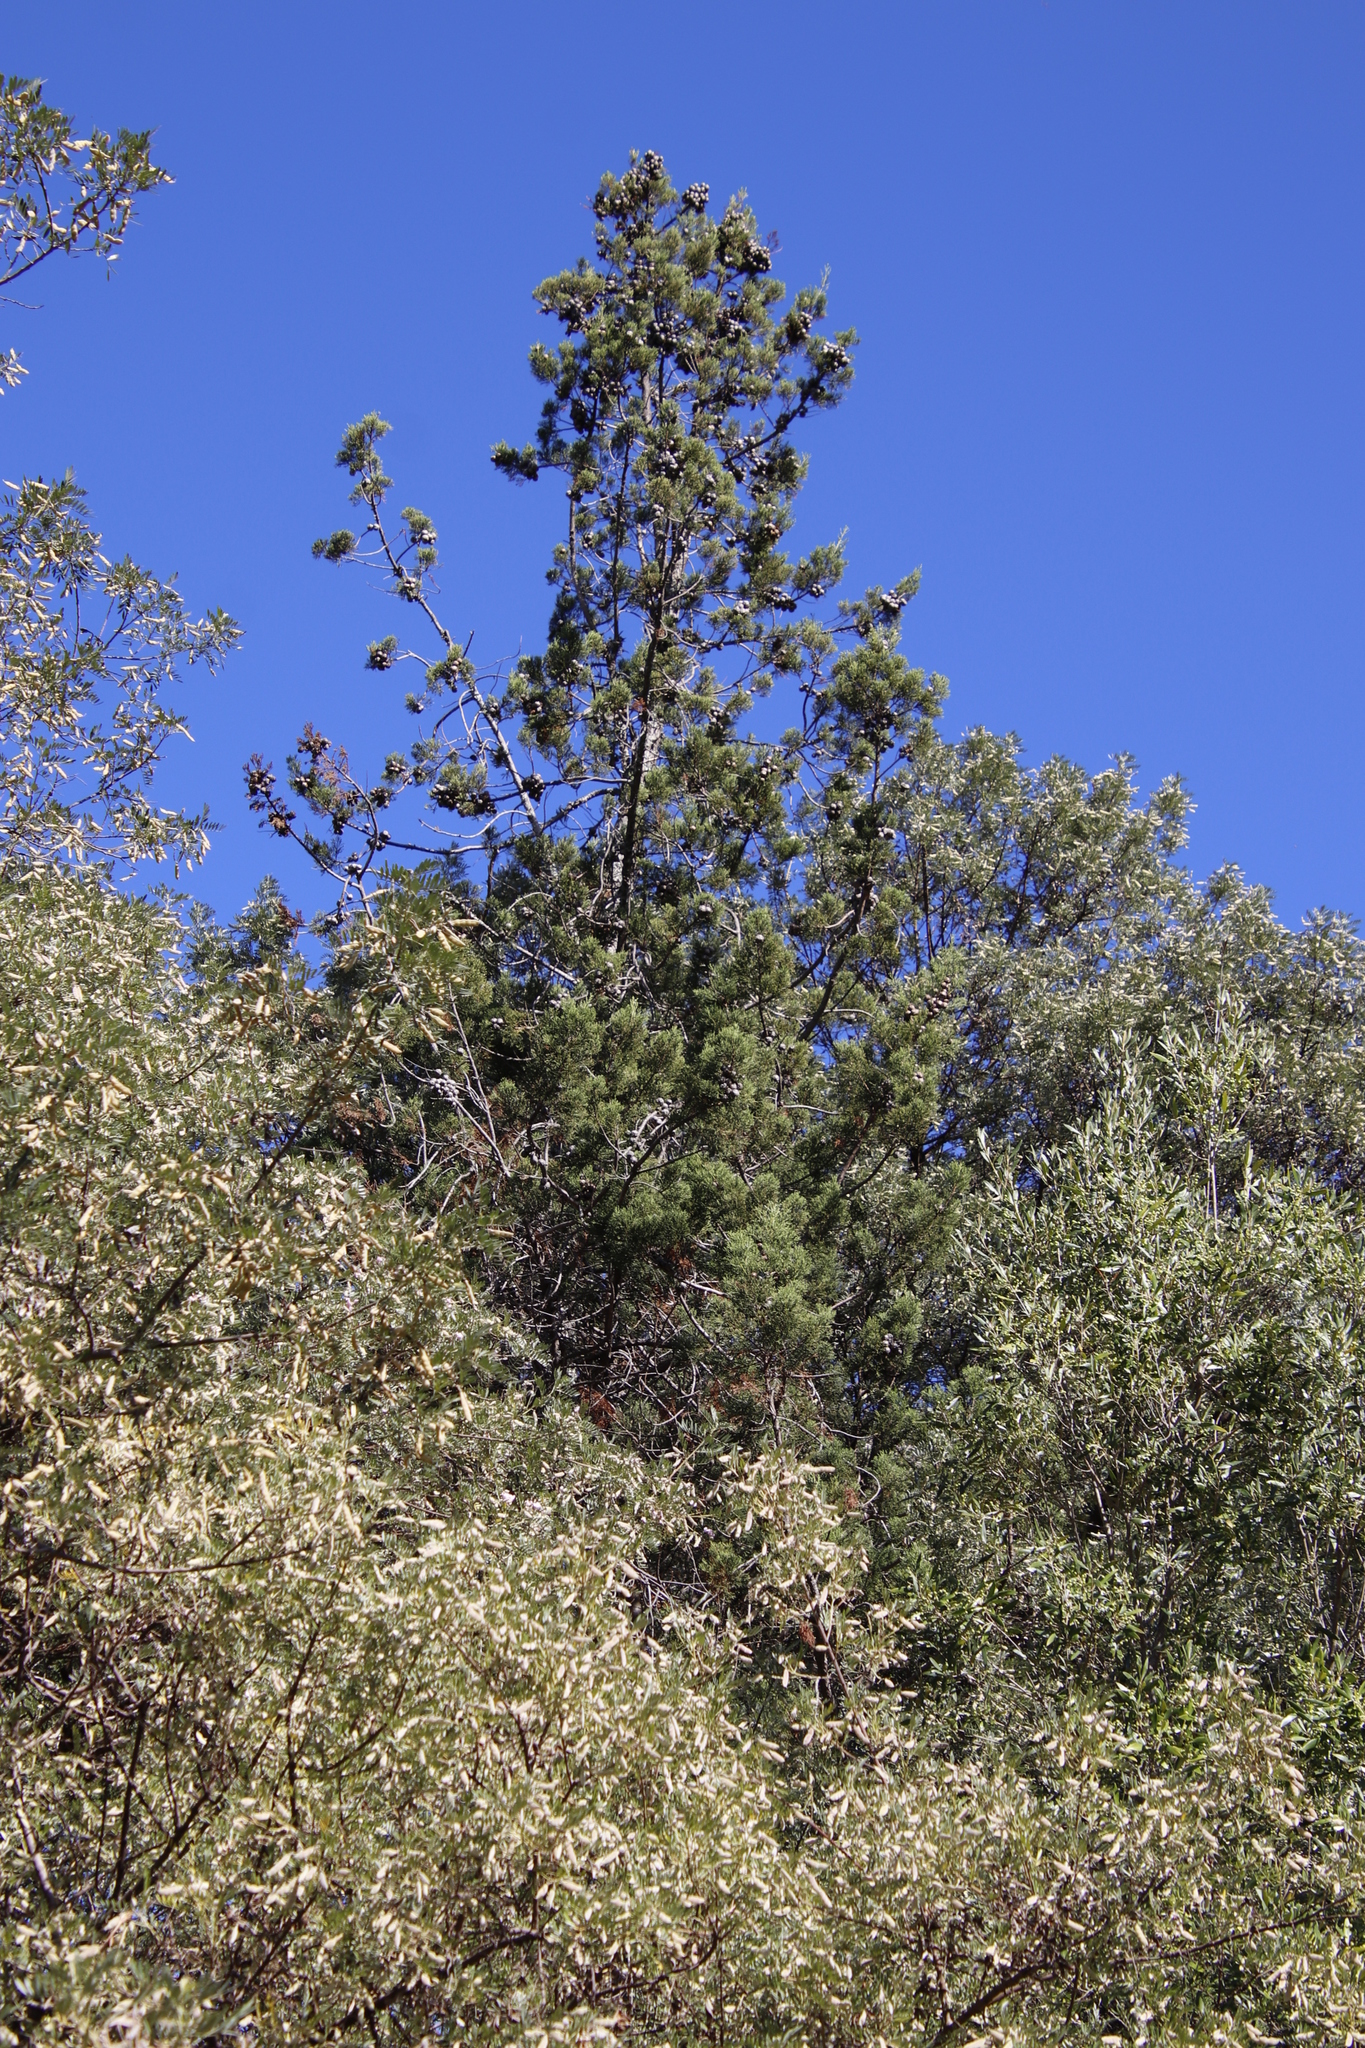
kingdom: Plantae
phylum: Tracheophyta
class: Pinopsida
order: Pinales
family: Cupressaceae
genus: Widdringtonia
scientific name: Widdringtonia nodiflora
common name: Cape cypress
